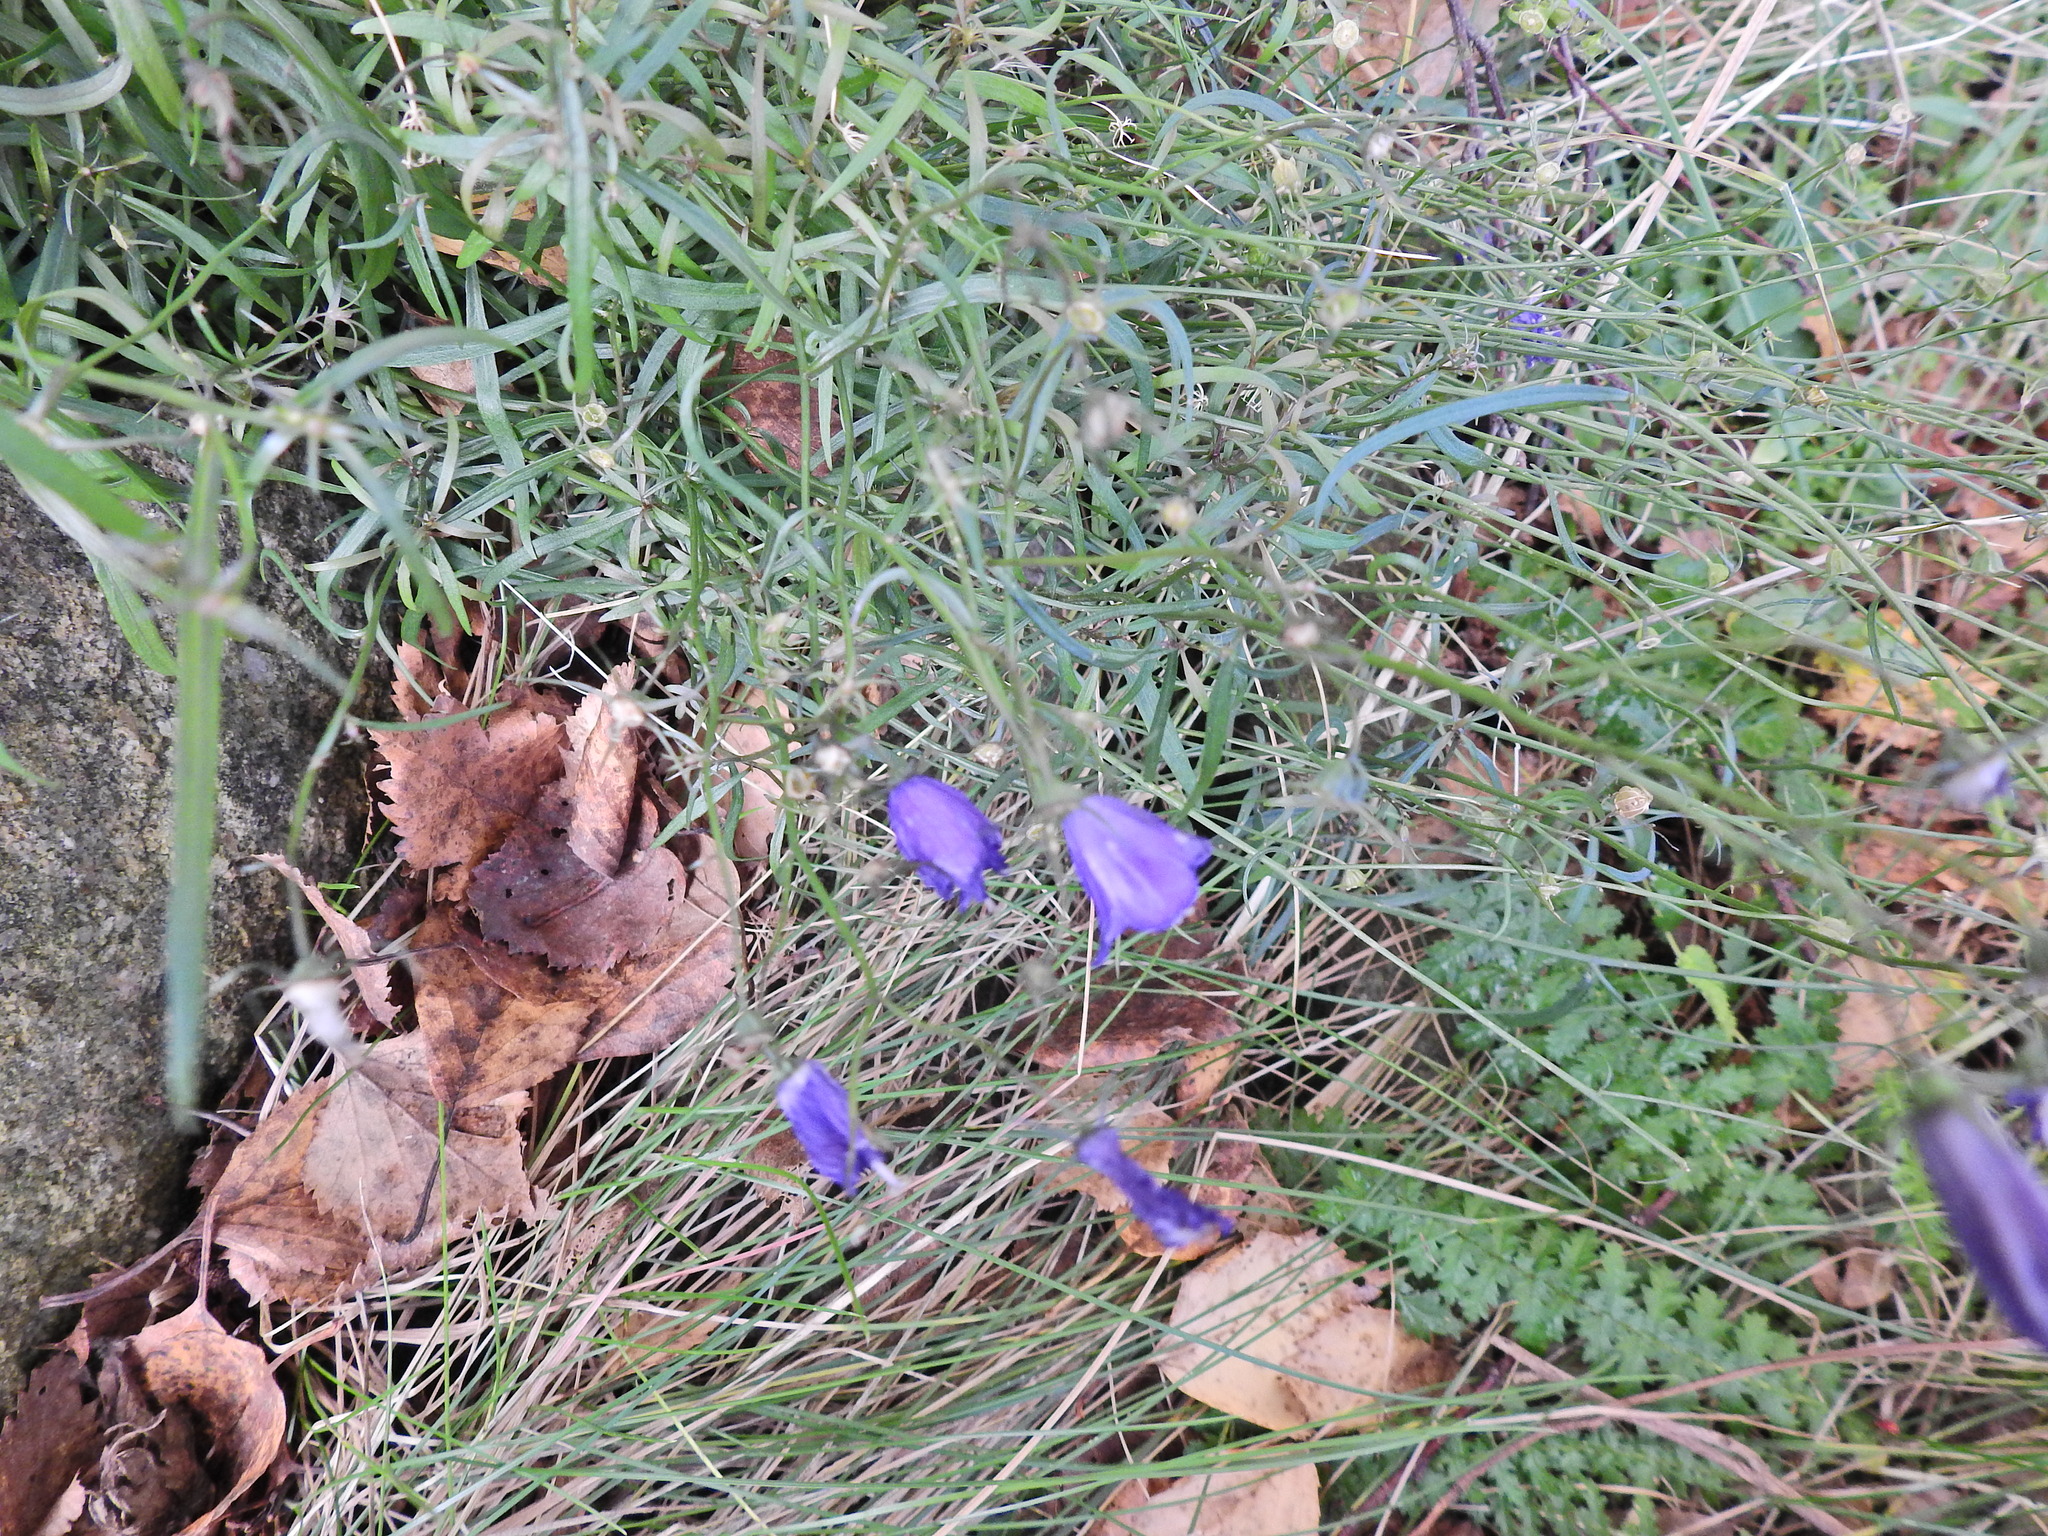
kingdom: Plantae
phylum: Tracheophyta
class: Magnoliopsida
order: Asterales
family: Campanulaceae
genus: Campanula
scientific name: Campanula rotundifolia
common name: Harebell
